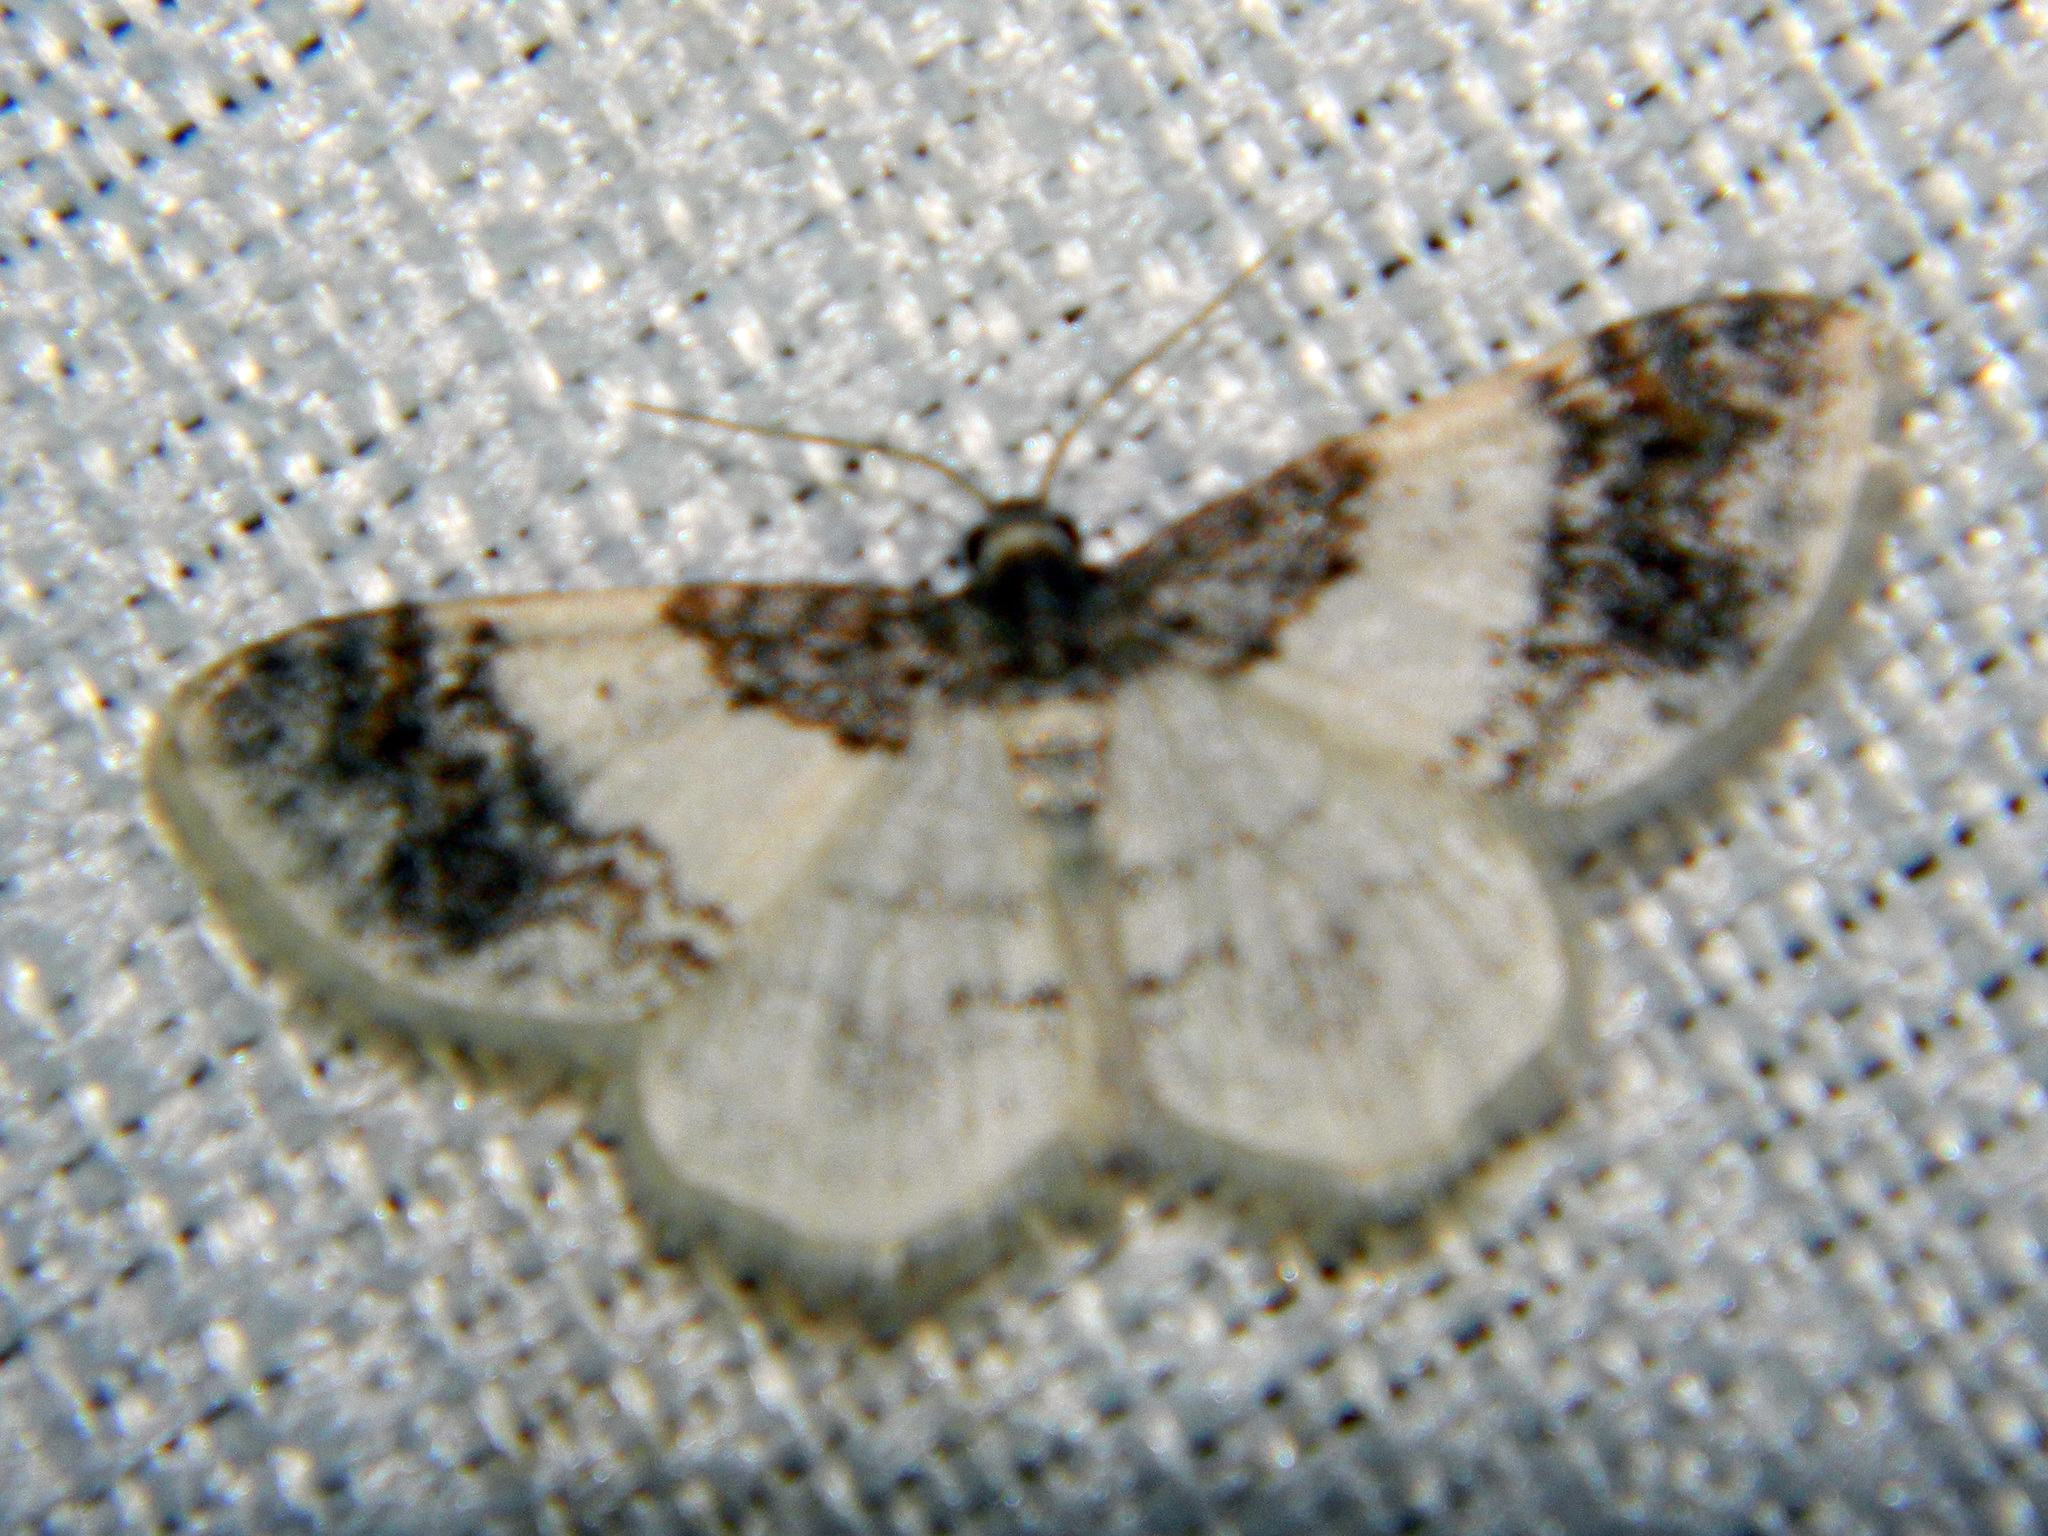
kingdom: Animalia
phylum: Arthropoda
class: Insecta
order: Lepidoptera
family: Geometridae
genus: Hydrelia
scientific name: Hydrelia condensata
